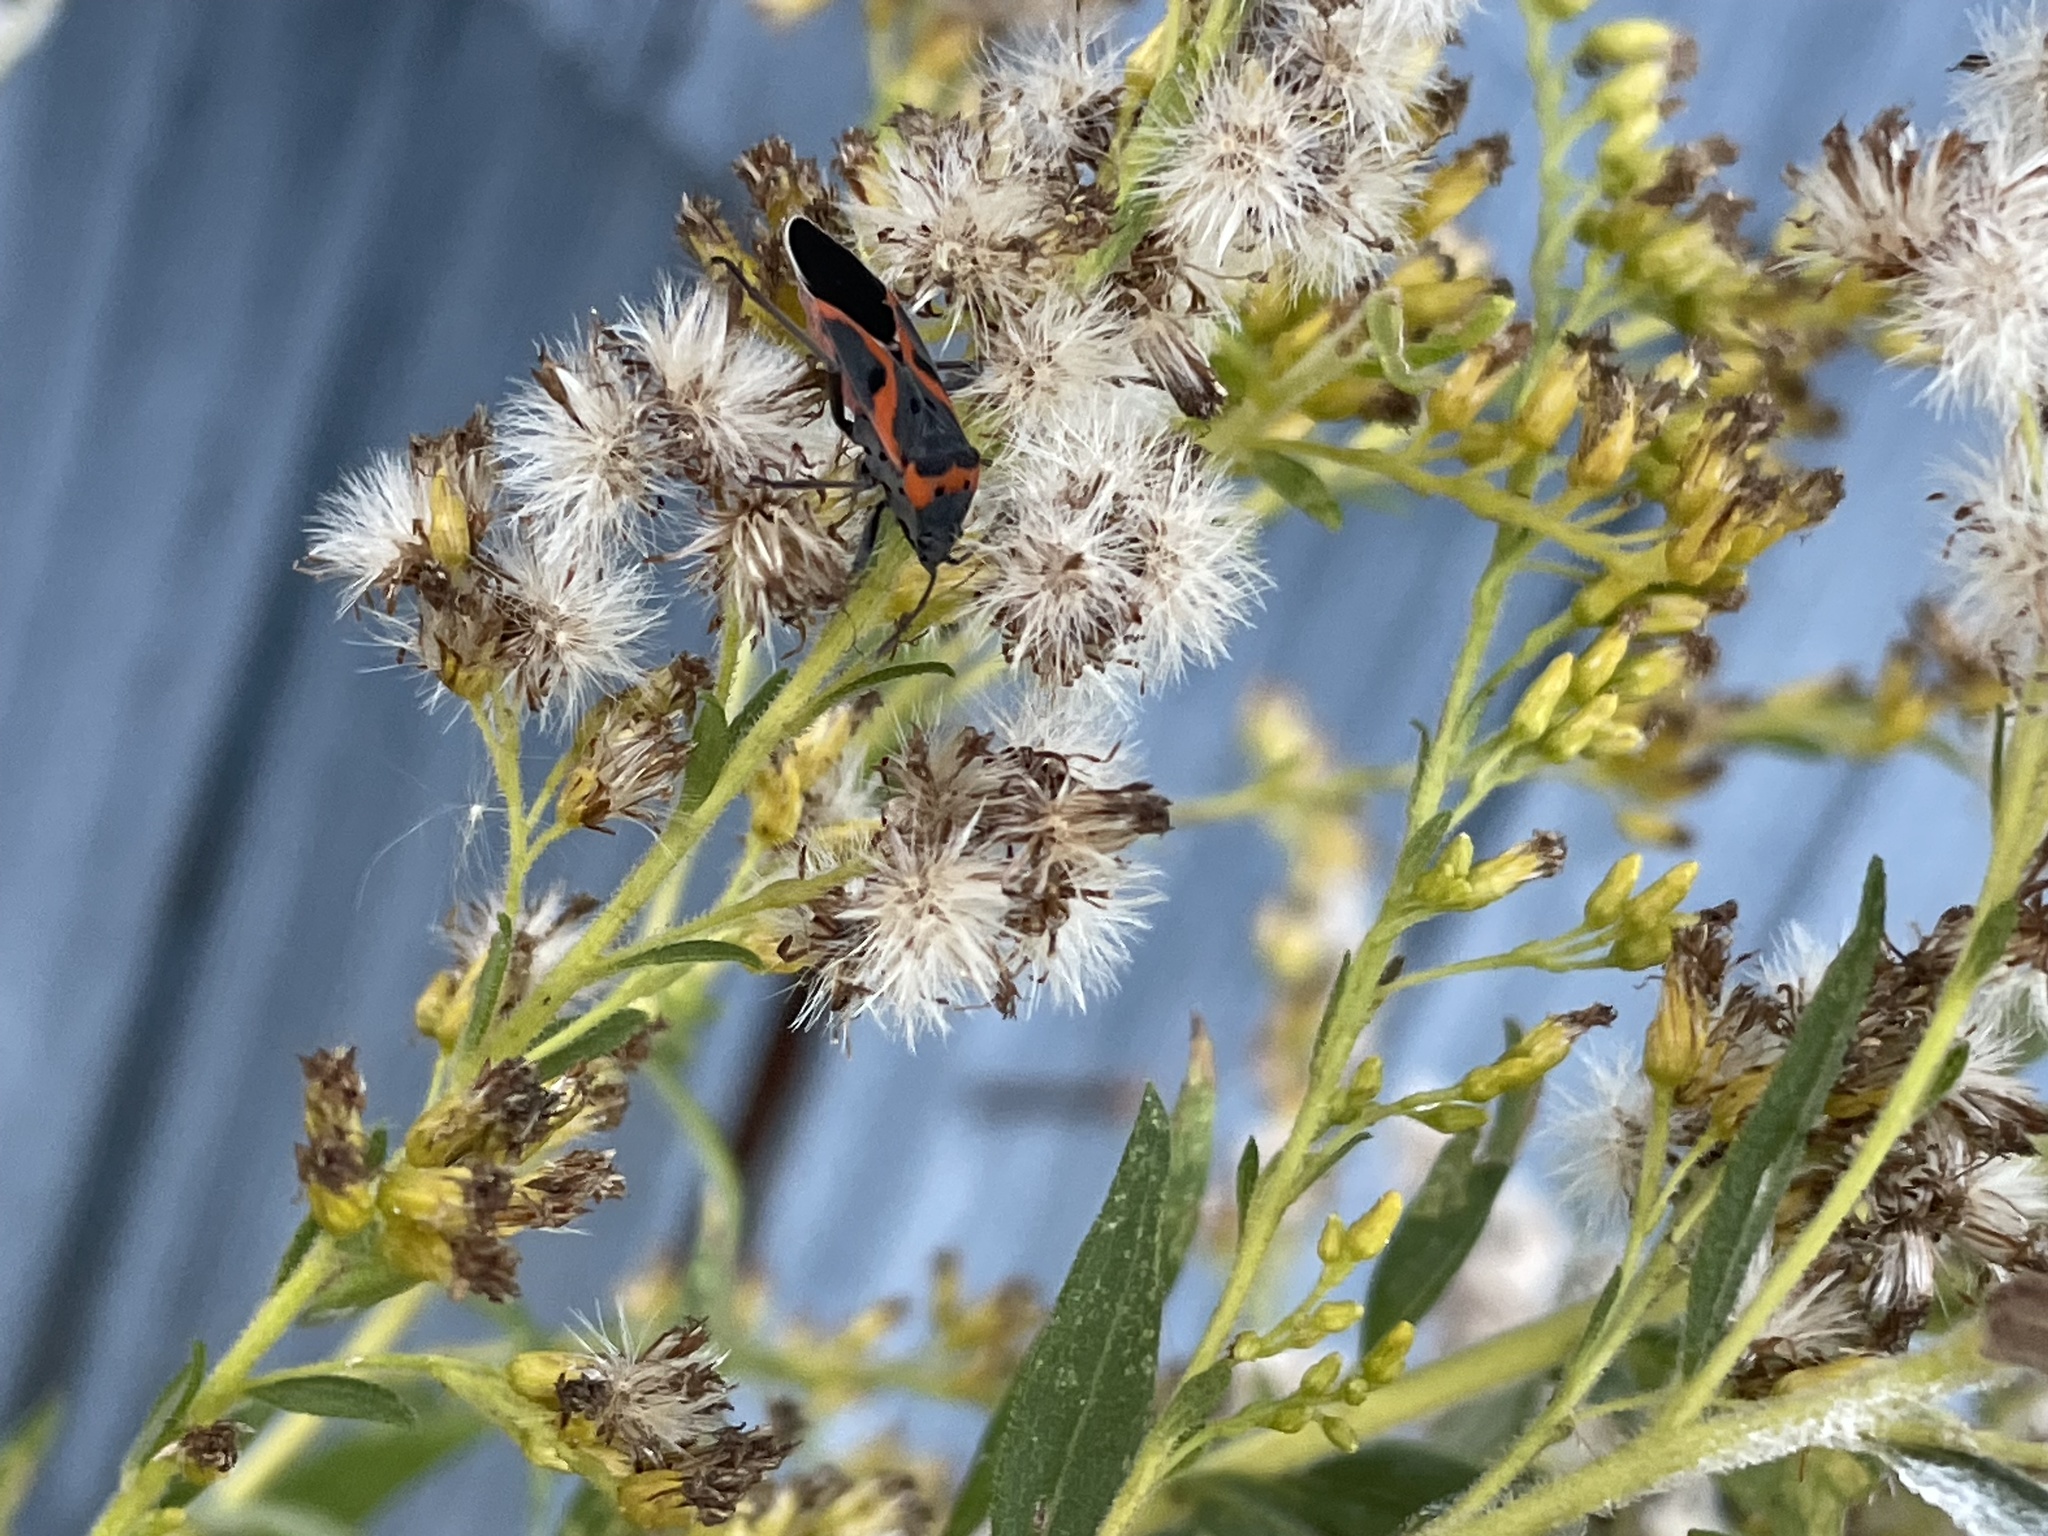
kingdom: Animalia
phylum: Arthropoda
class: Insecta
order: Hemiptera
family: Lygaeidae
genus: Lygaeus
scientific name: Lygaeus kalmii
